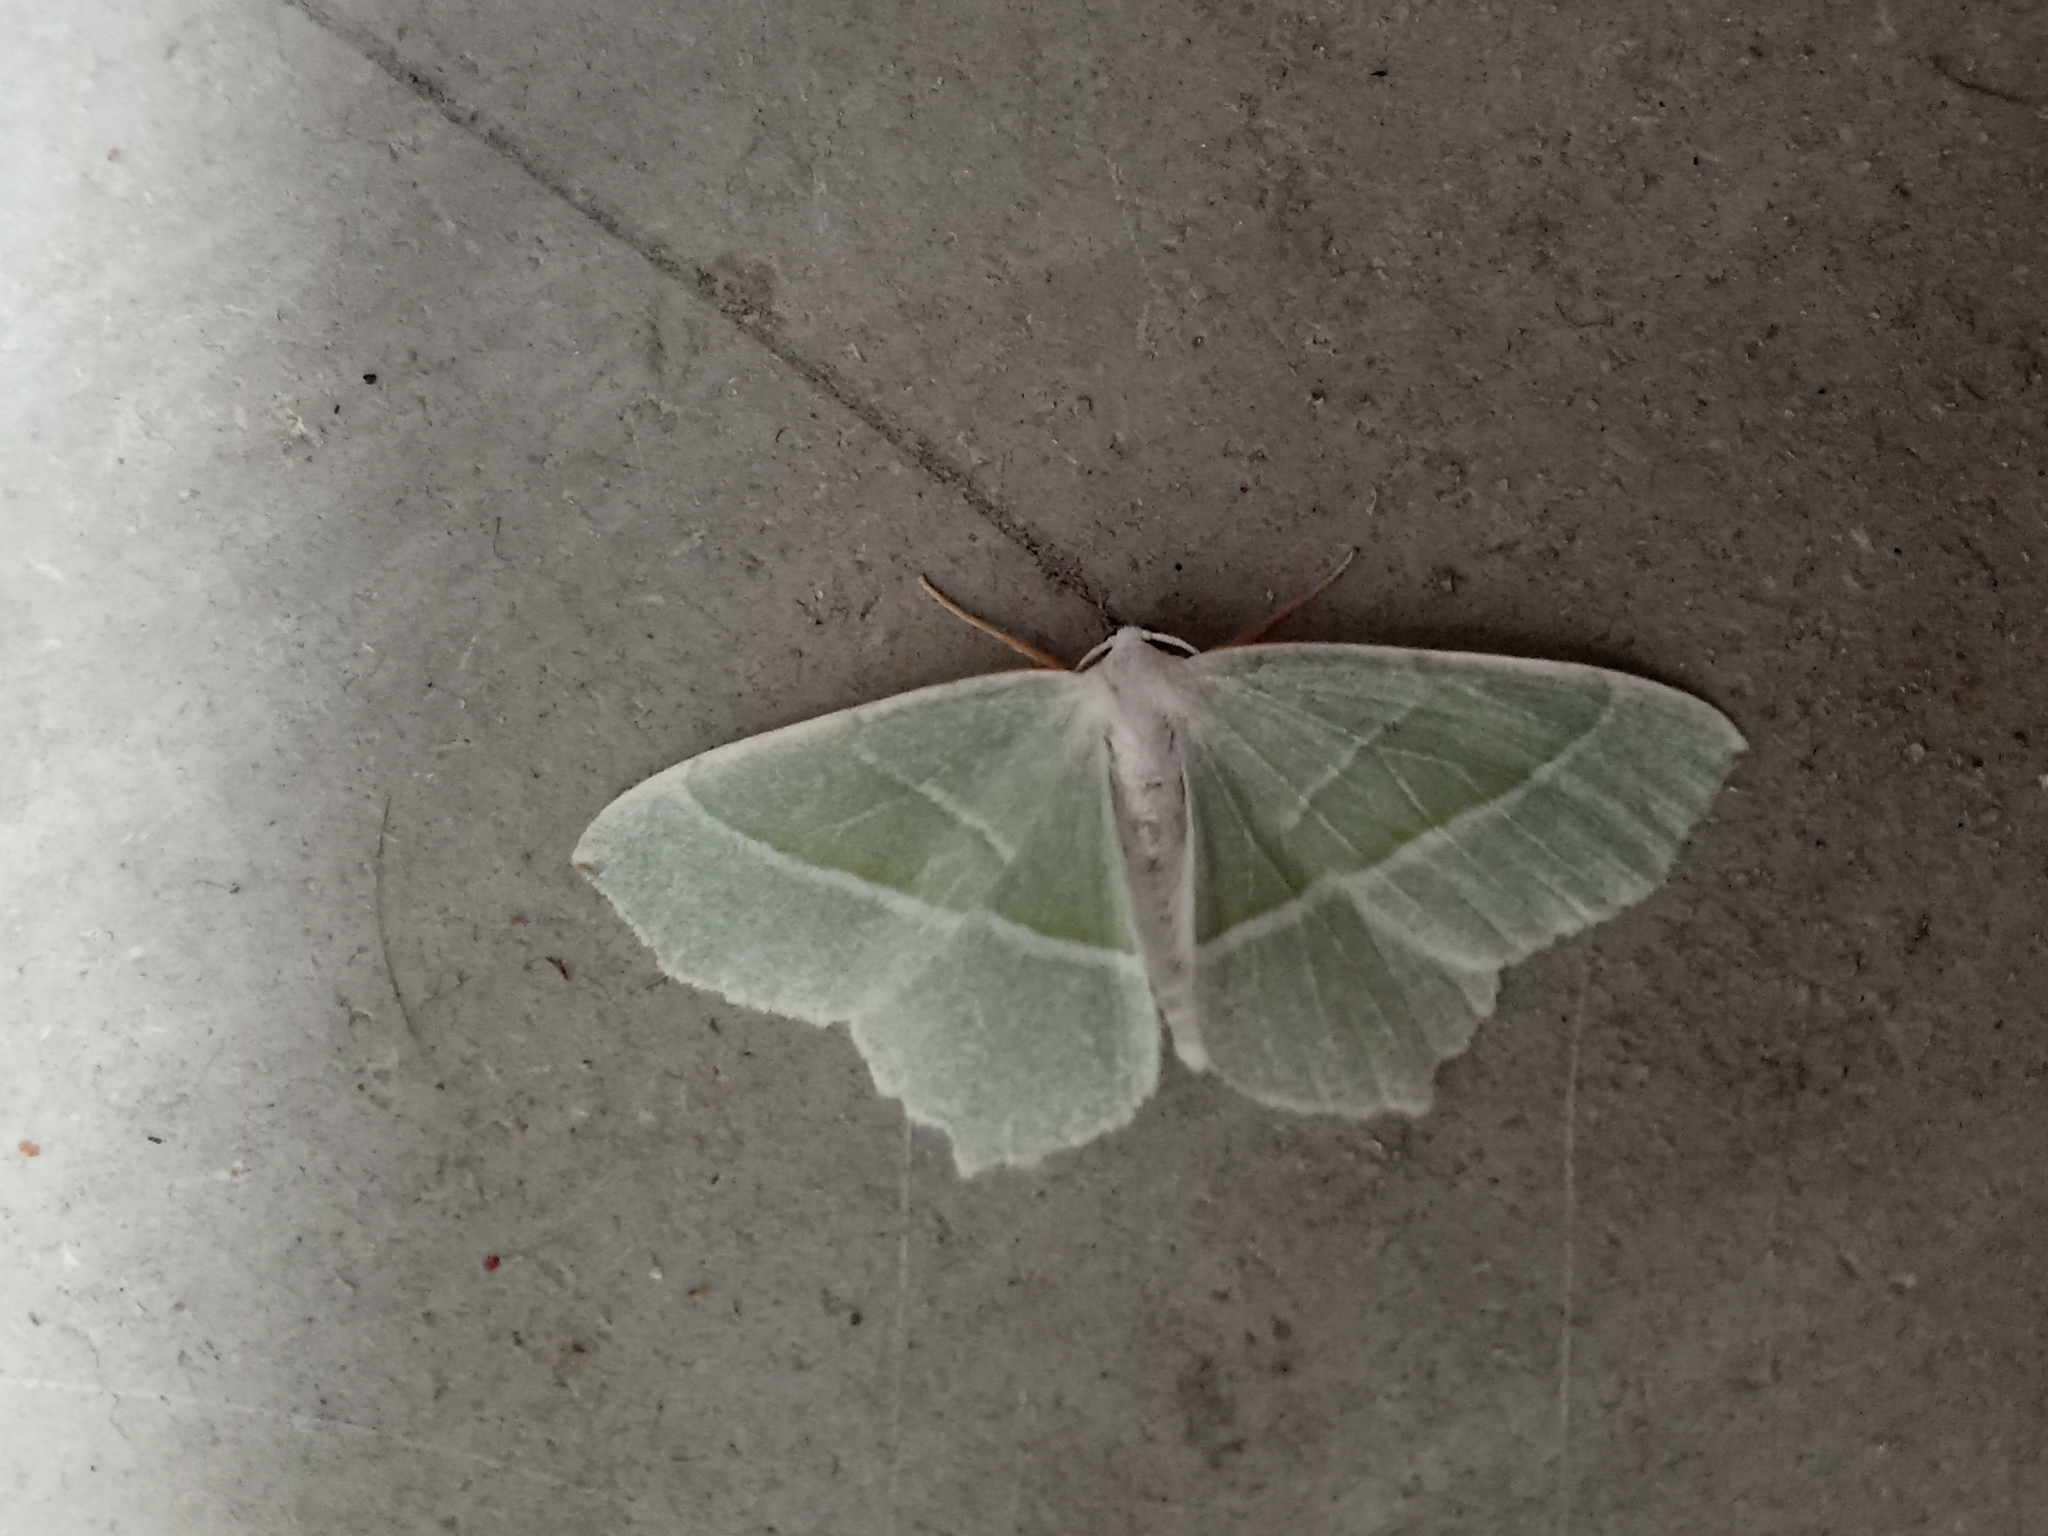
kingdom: Animalia
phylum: Arthropoda
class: Insecta
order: Lepidoptera
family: Geometridae
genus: Campaea
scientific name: Campaea margaritaria
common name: Light emerald
